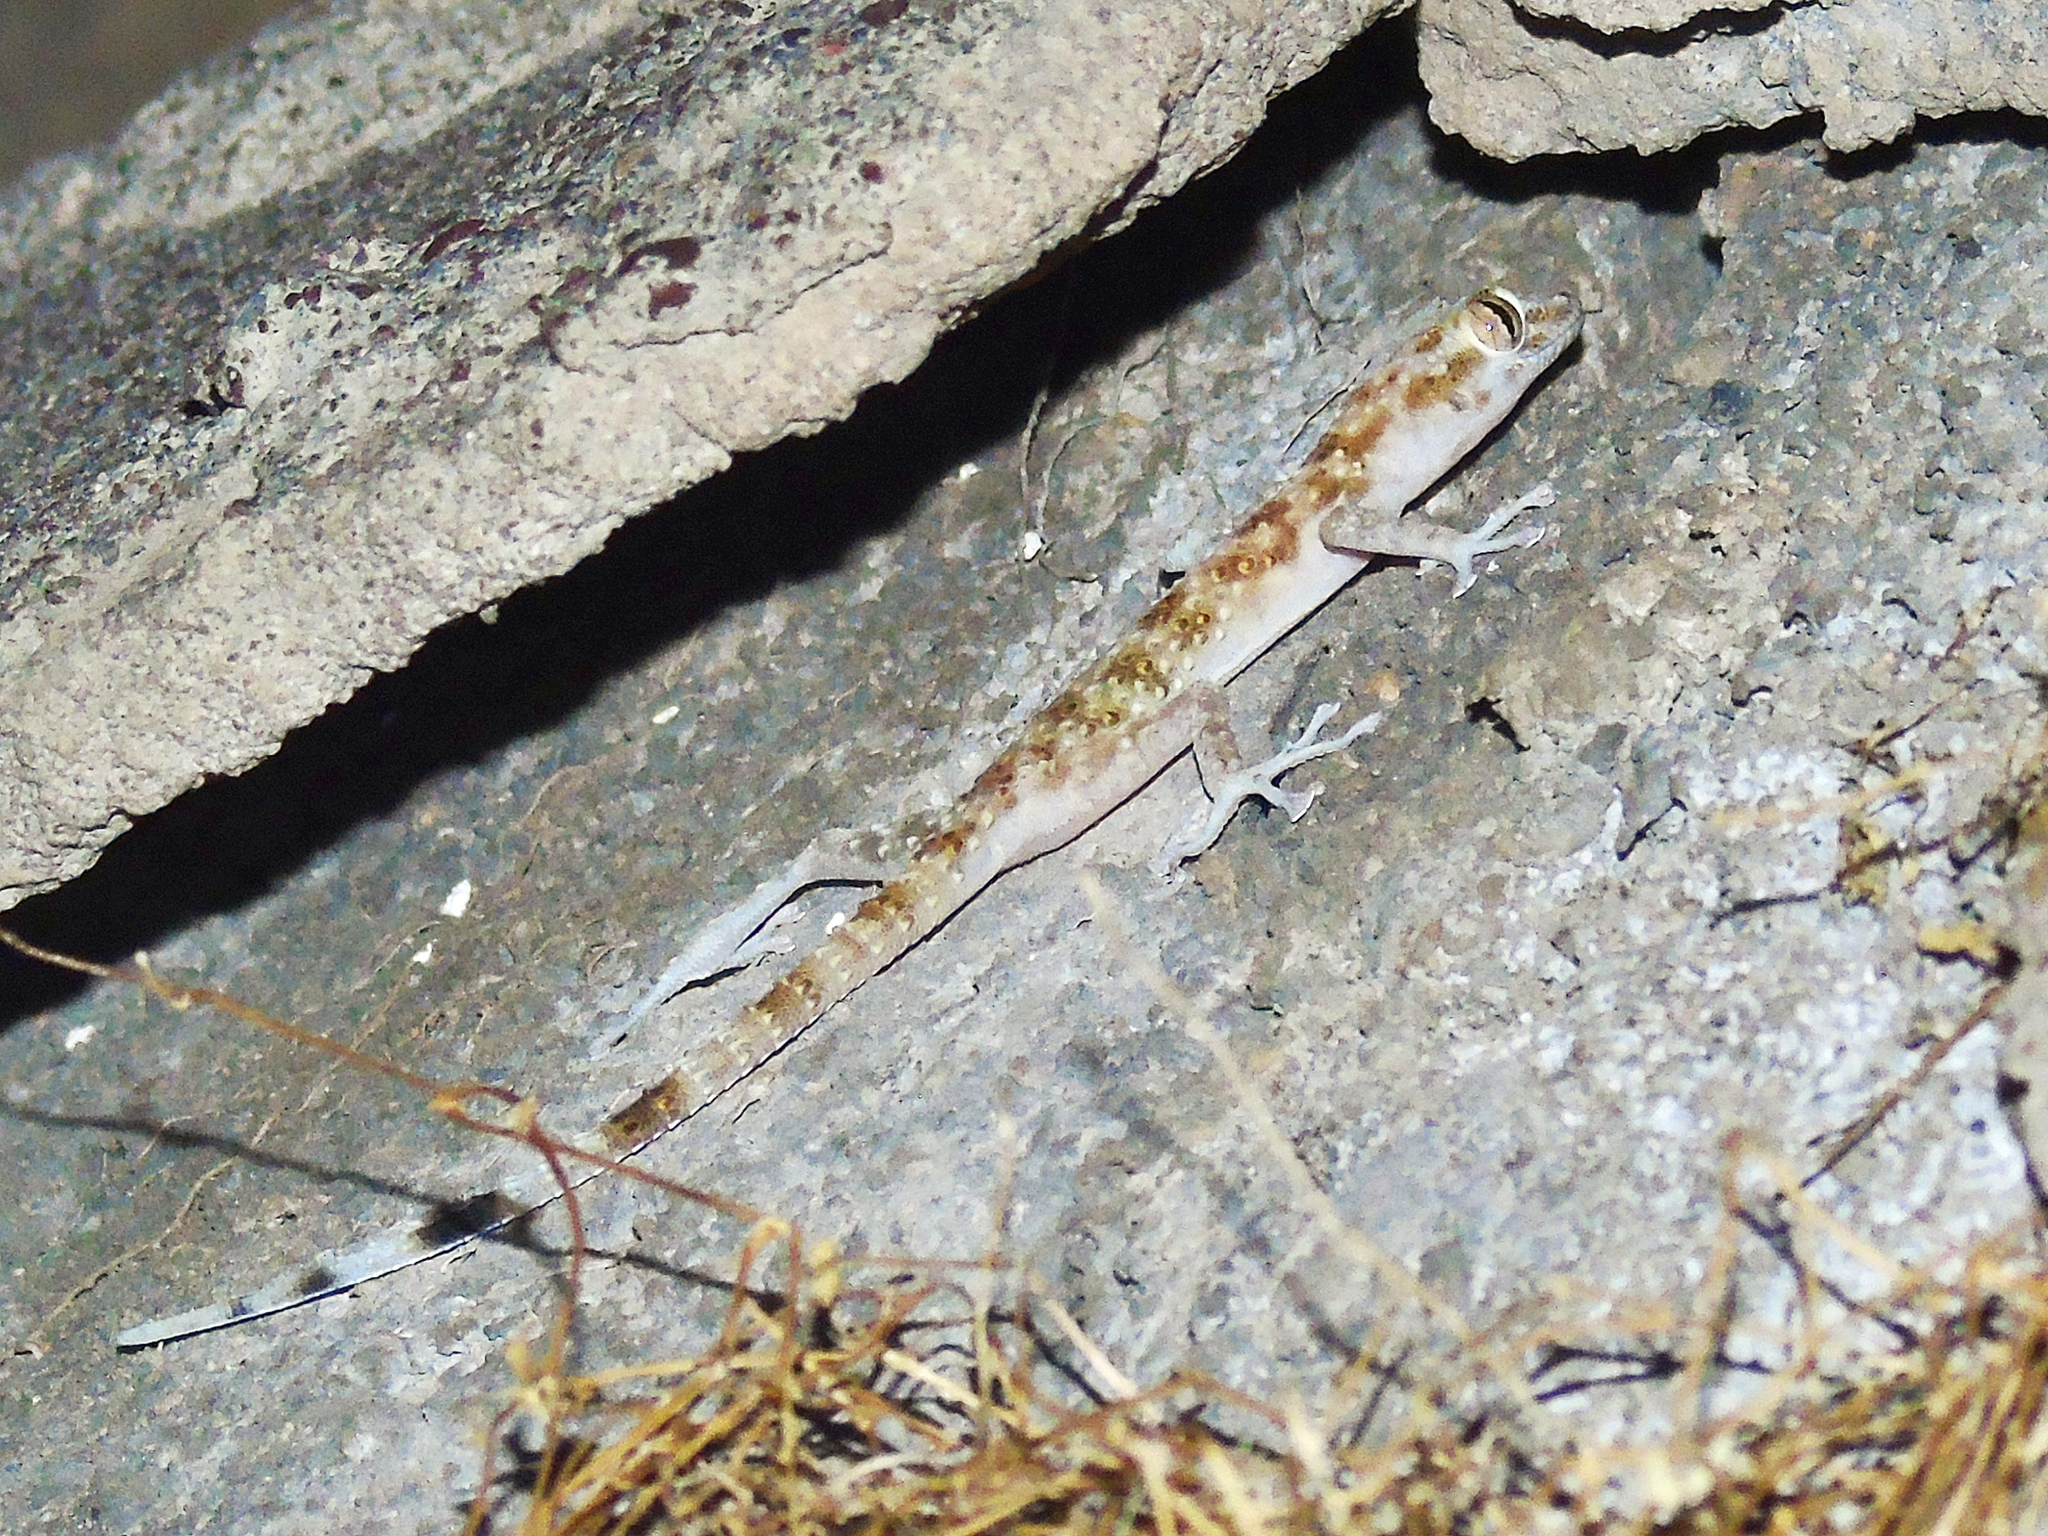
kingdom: Animalia
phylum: Chordata
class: Squamata
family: Phyllodactylidae
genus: Asaccus
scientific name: Asaccus elisae
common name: Leaf-toed gecko
